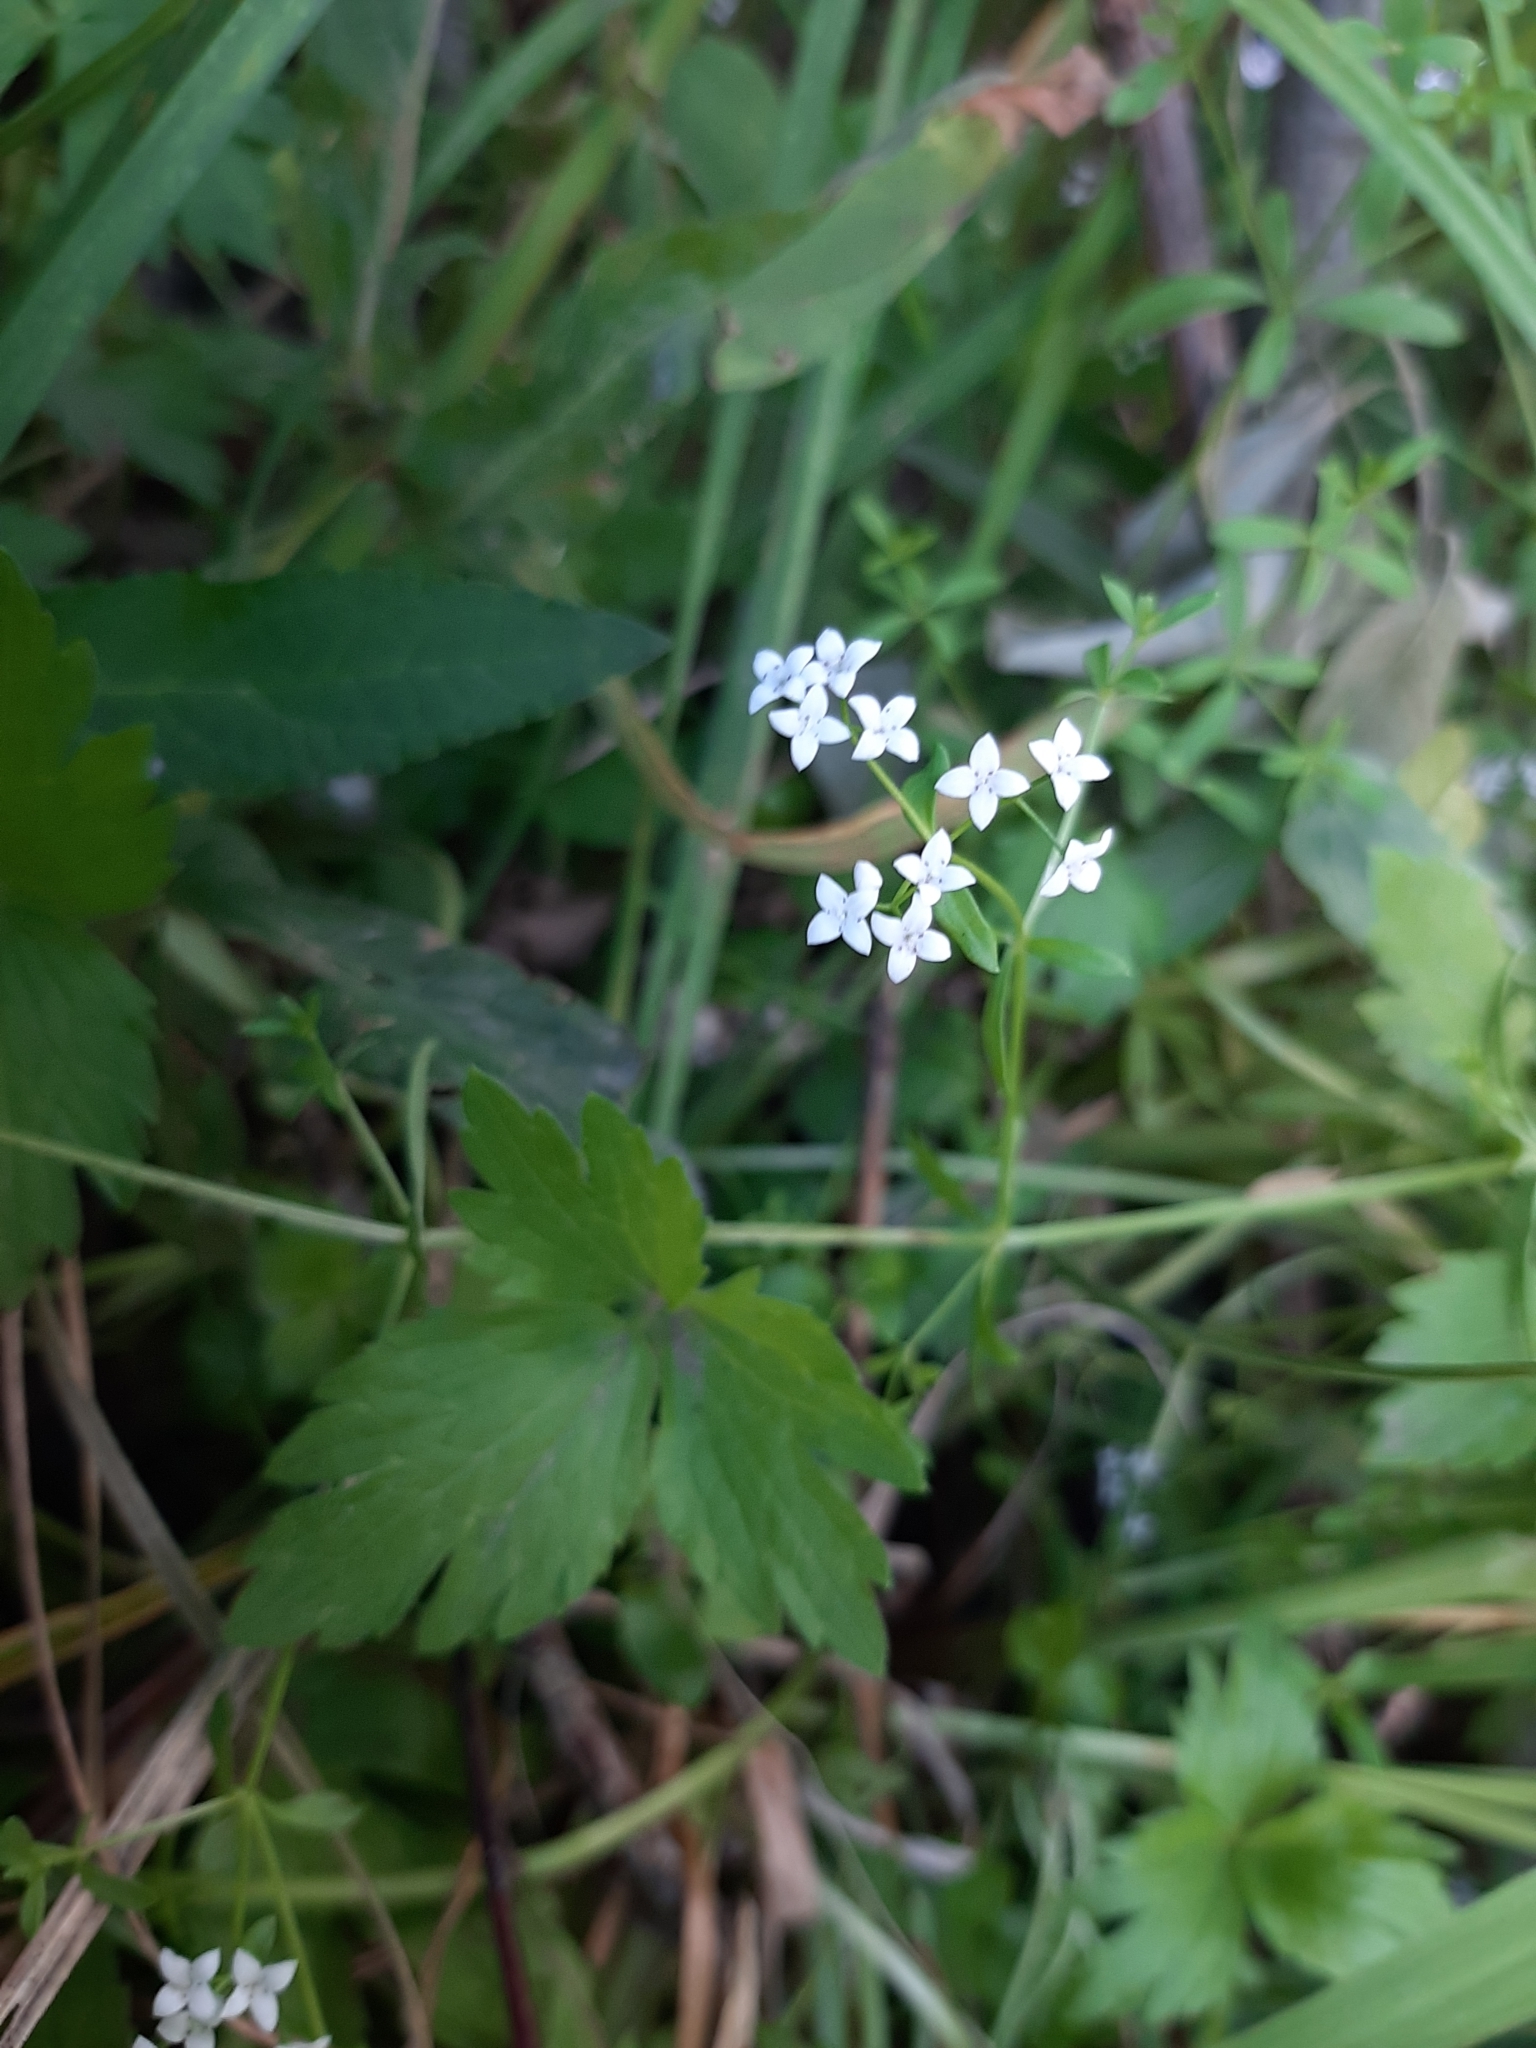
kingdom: Plantae
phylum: Tracheophyta
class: Magnoliopsida
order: Gentianales
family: Rubiaceae
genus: Galium
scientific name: Galium palustre
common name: Common marsh-bedstraw
